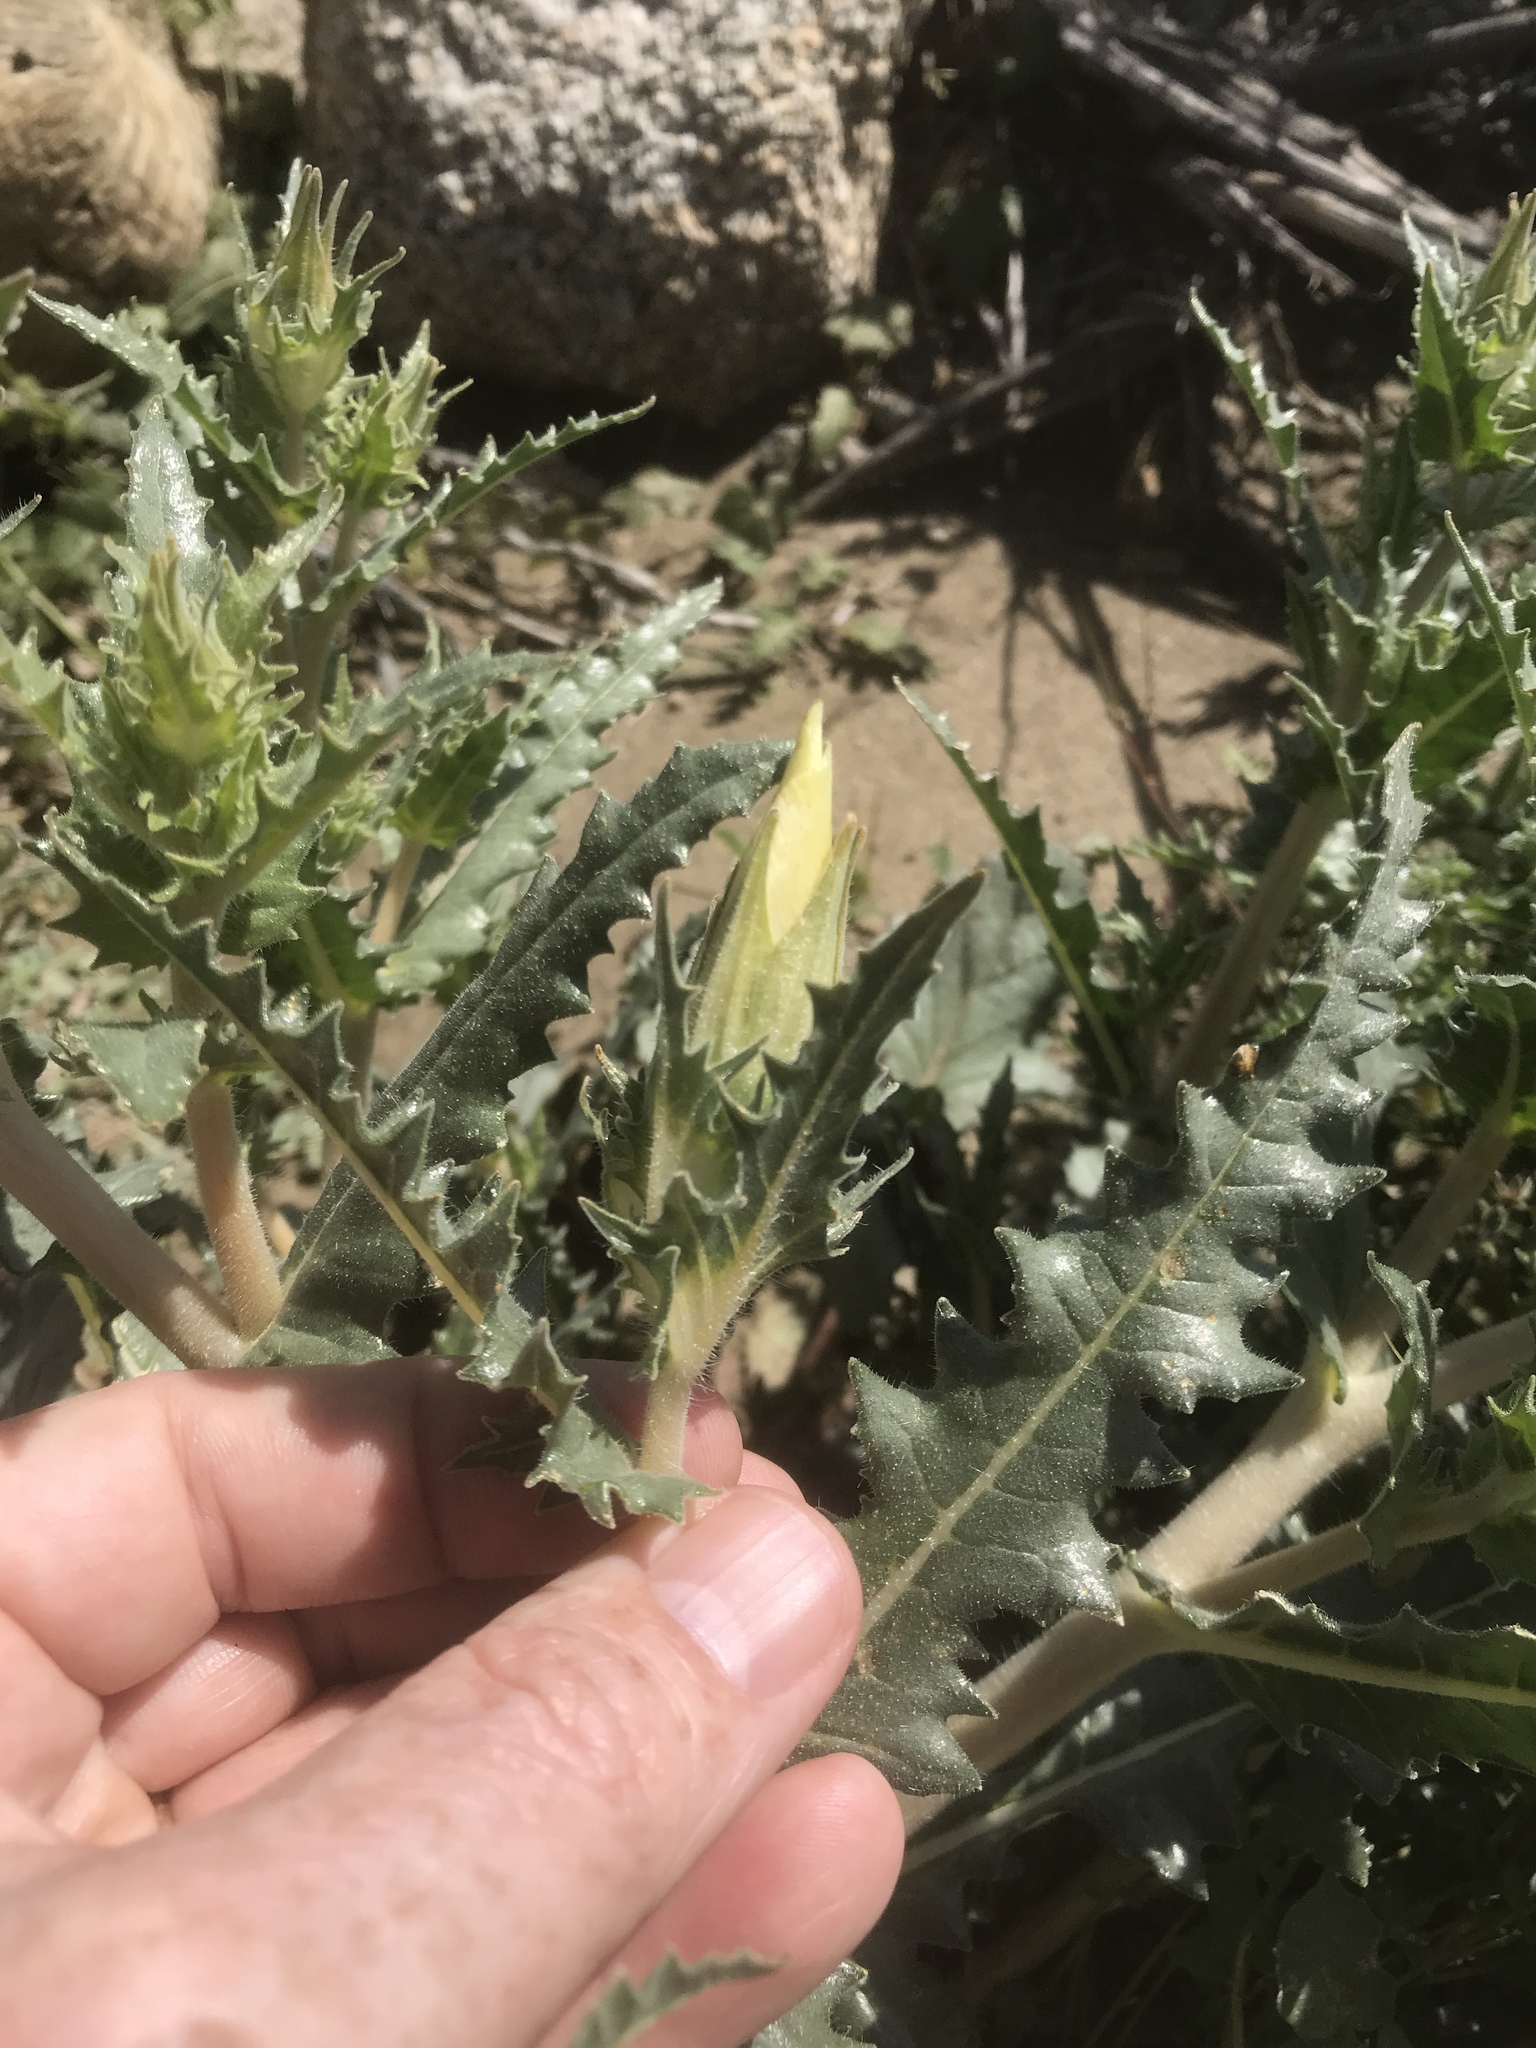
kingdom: Plantae
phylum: Tracheophyta
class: Magnoliopsida
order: Cornales
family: Loasaceae
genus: Mentzelia
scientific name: Mentzelia involucrata
